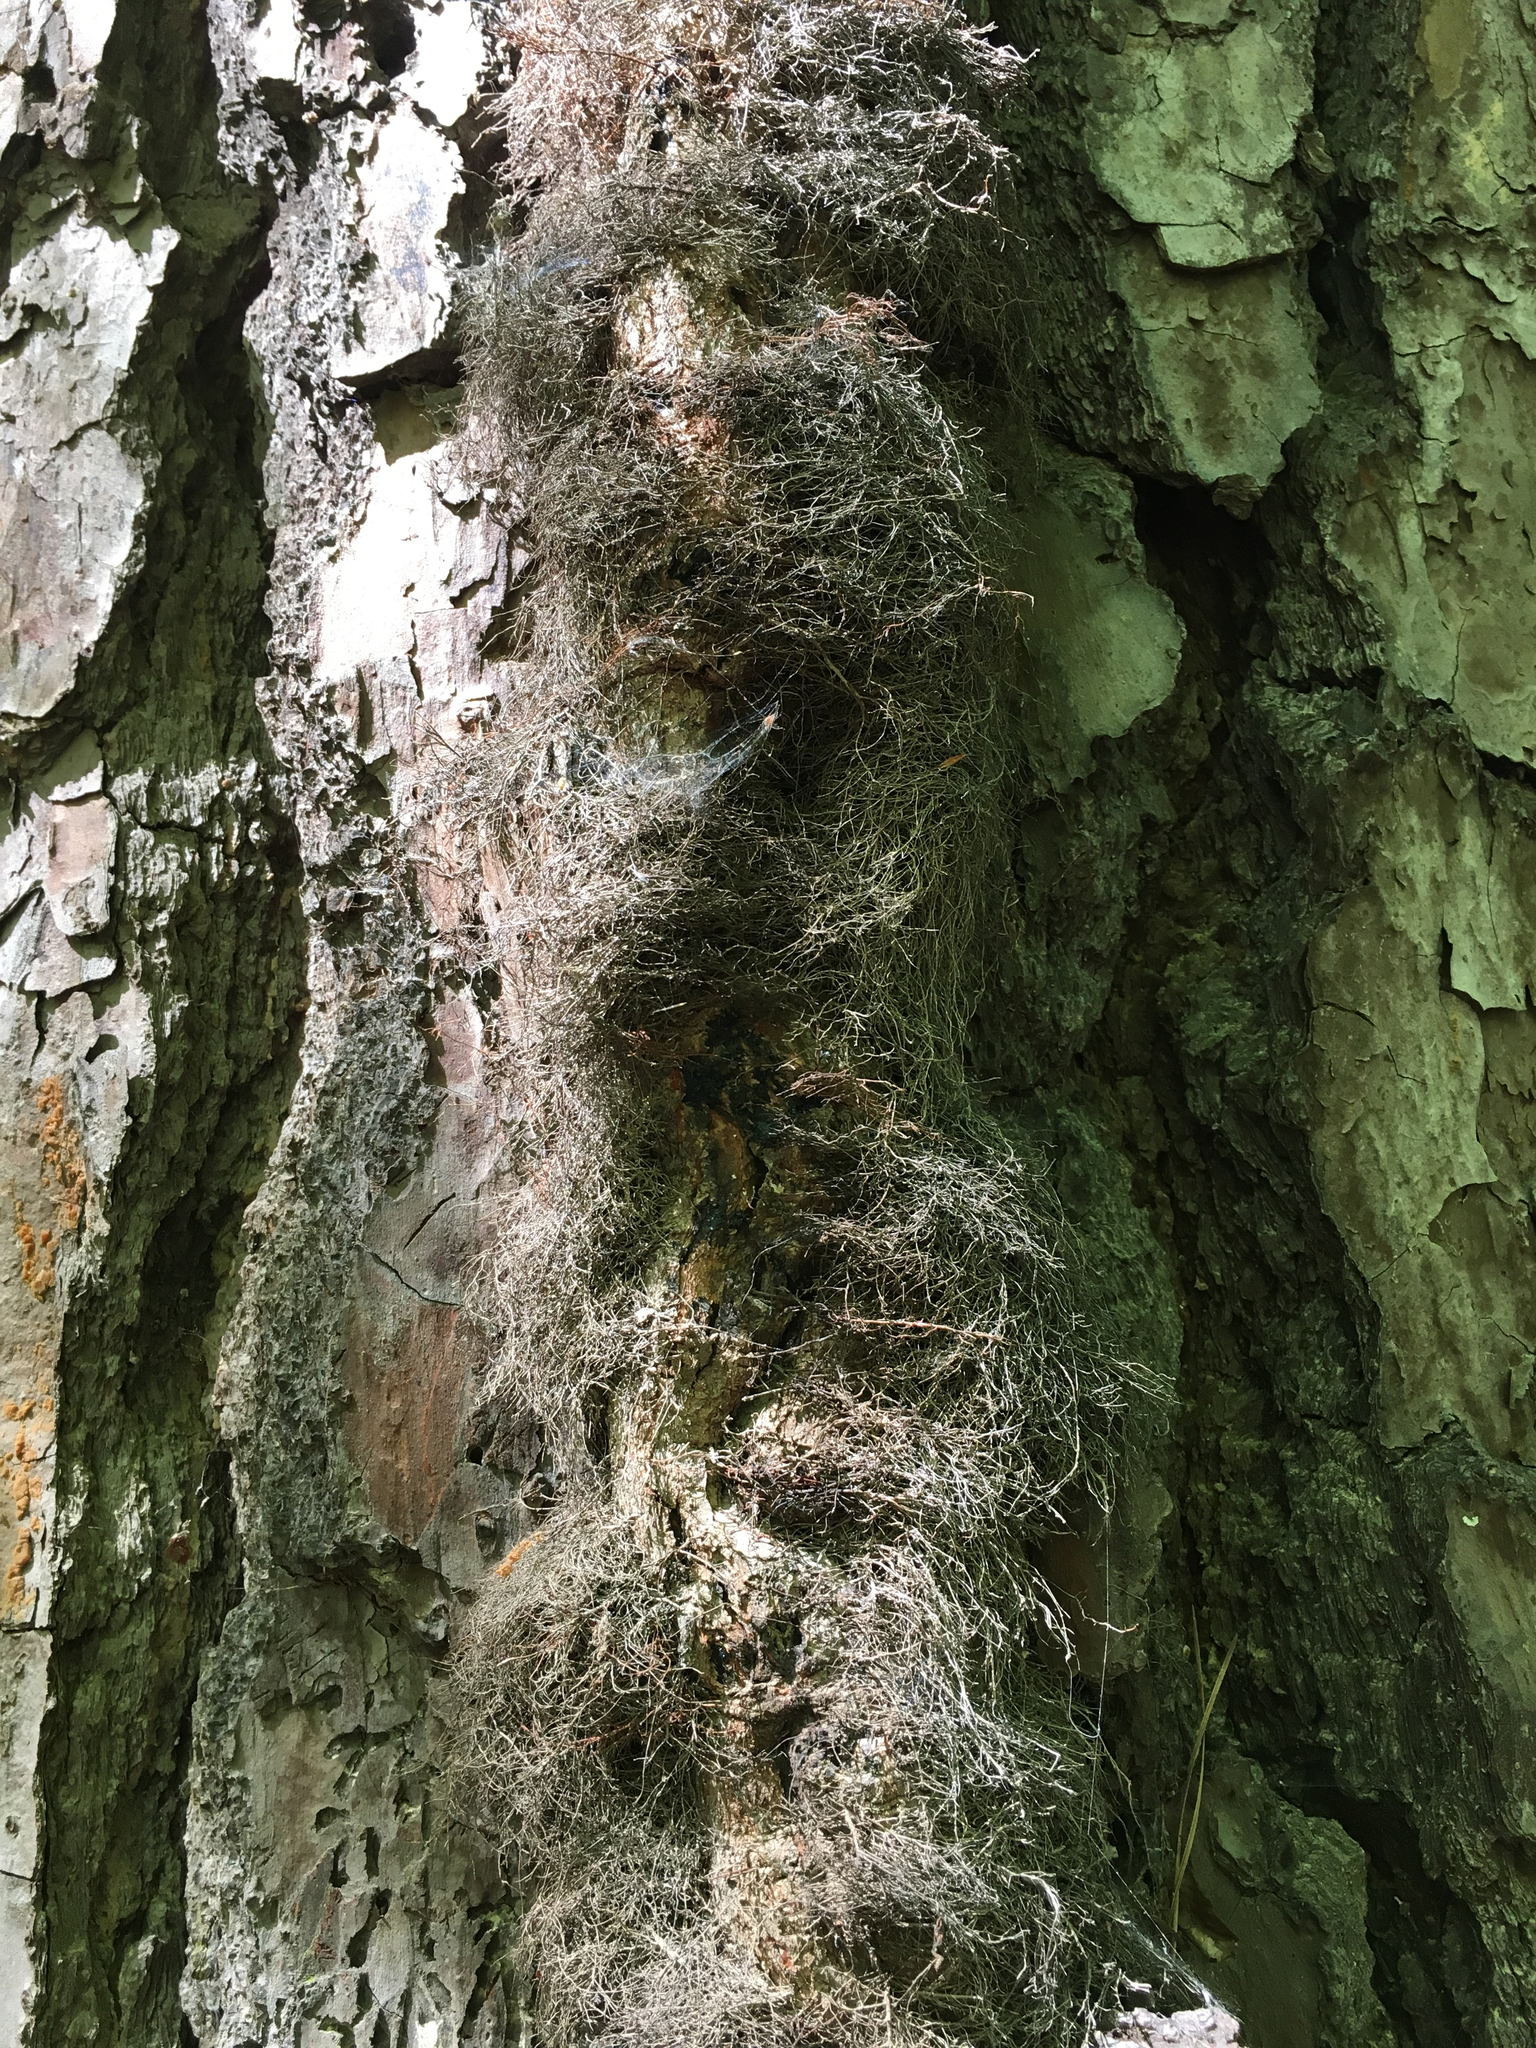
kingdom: Plantae
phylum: Tracheophyta
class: Magnoliopsida
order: Sapindales
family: Anacardiaceae
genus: Toxicodendron
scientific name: Toxicodendron radicans
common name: Poison ivy
